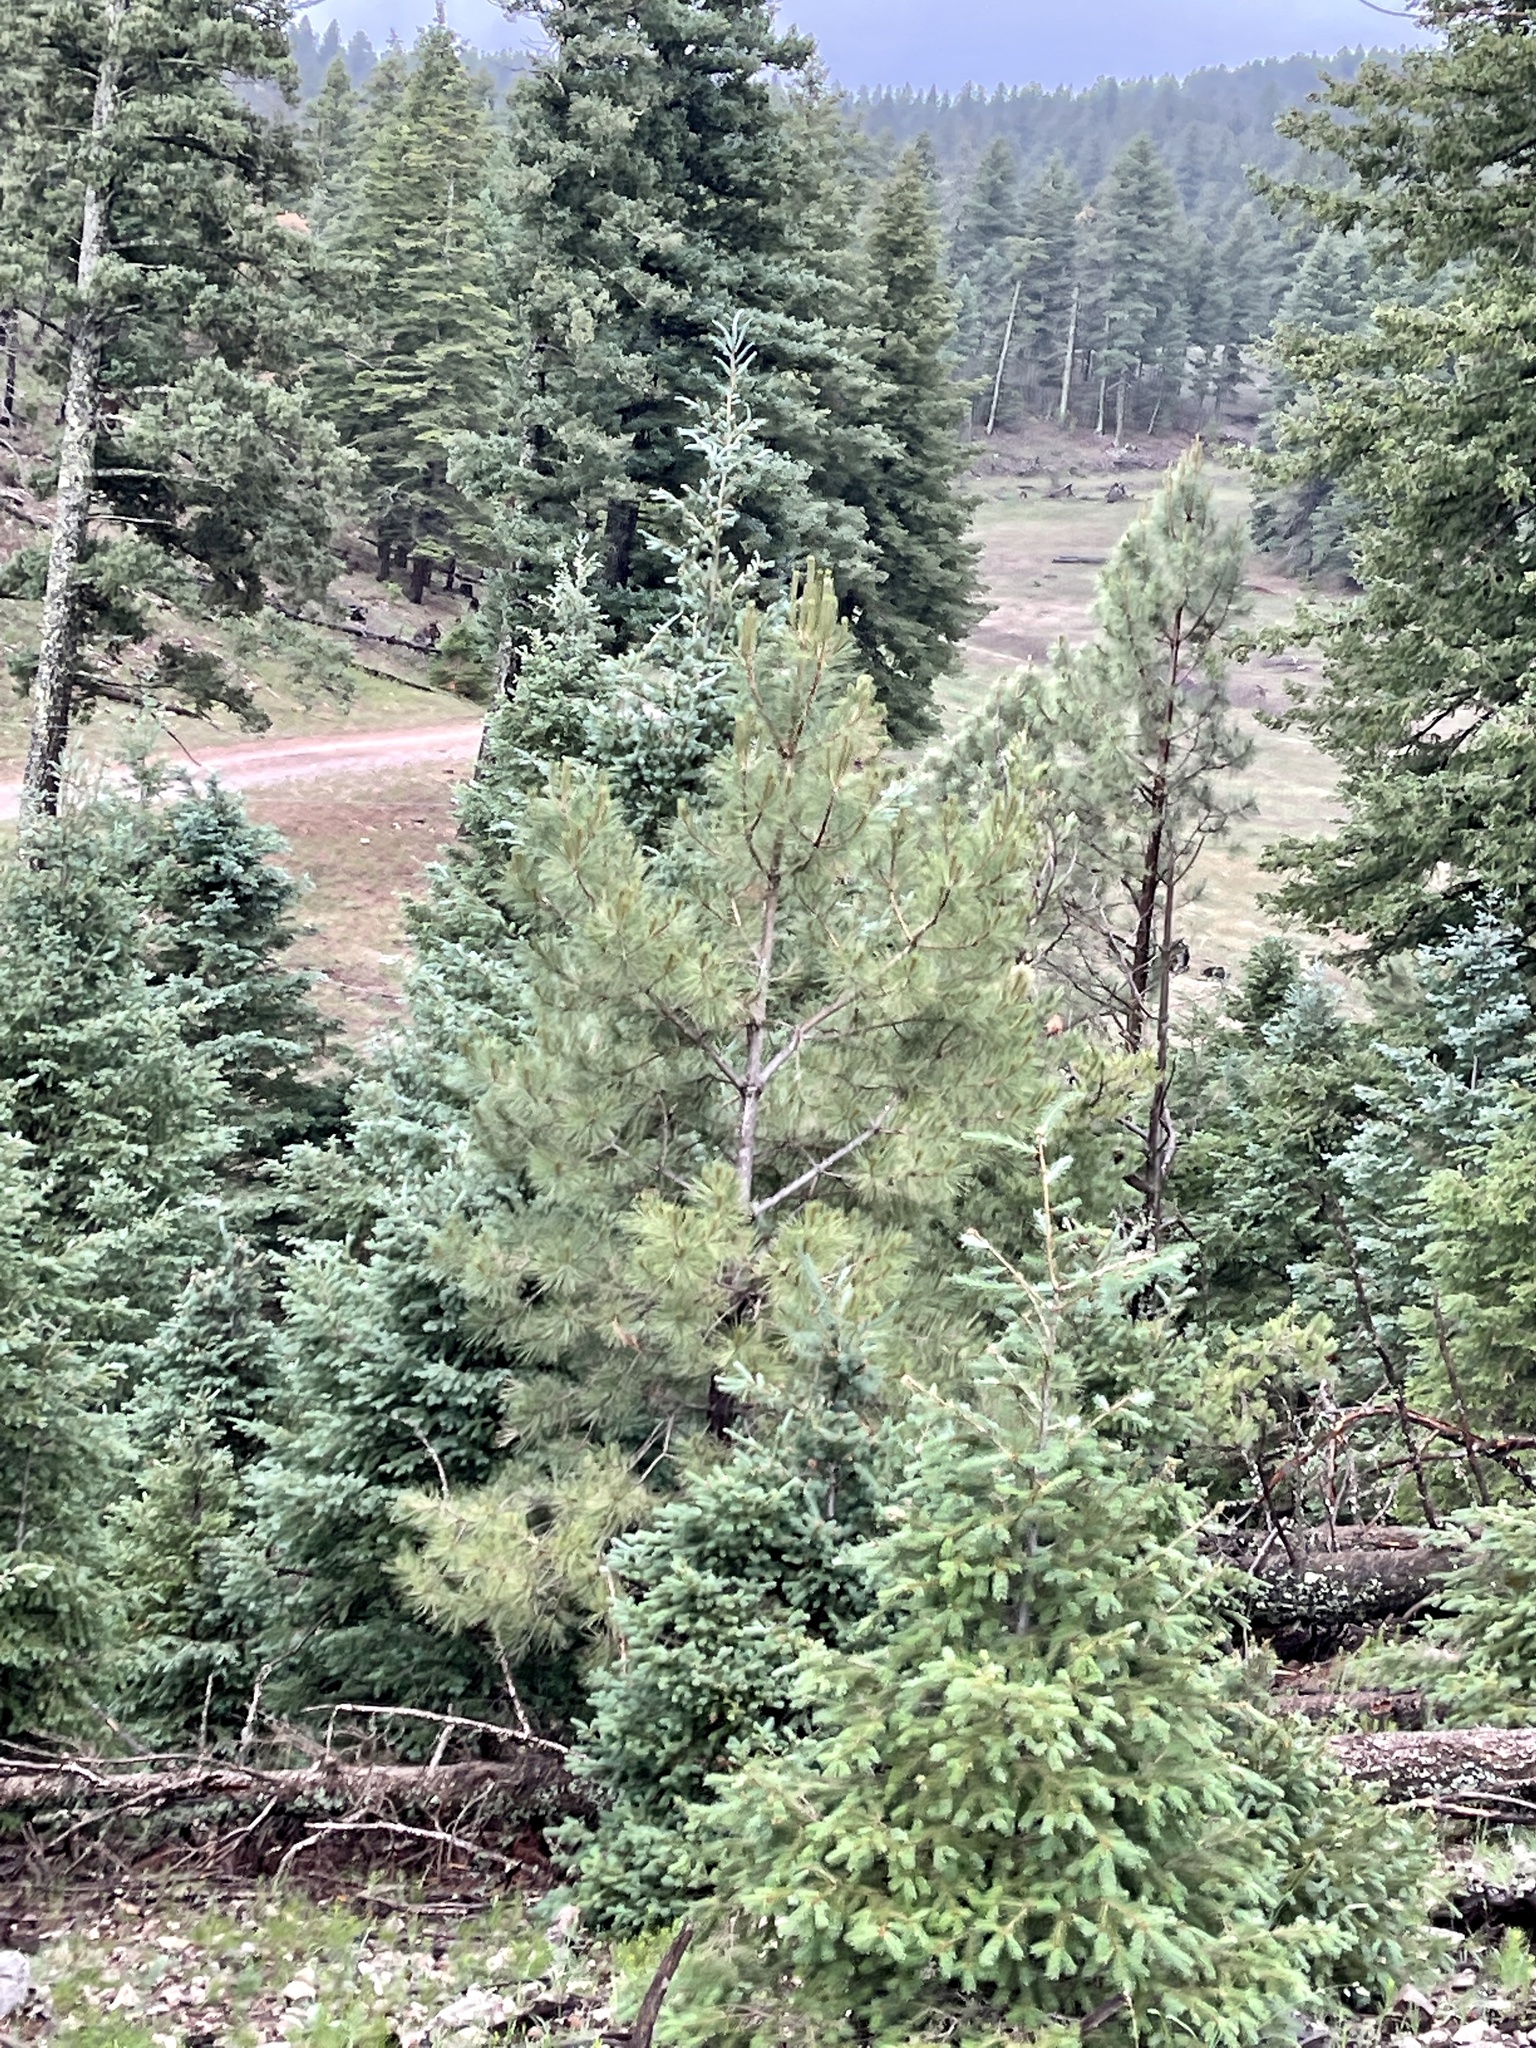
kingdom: Plantae
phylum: Tracheophyta
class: Pinopsida
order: Pinales
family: Pinaceae
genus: Pinus
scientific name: Pinus ponderosa
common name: Western yellow-pine
